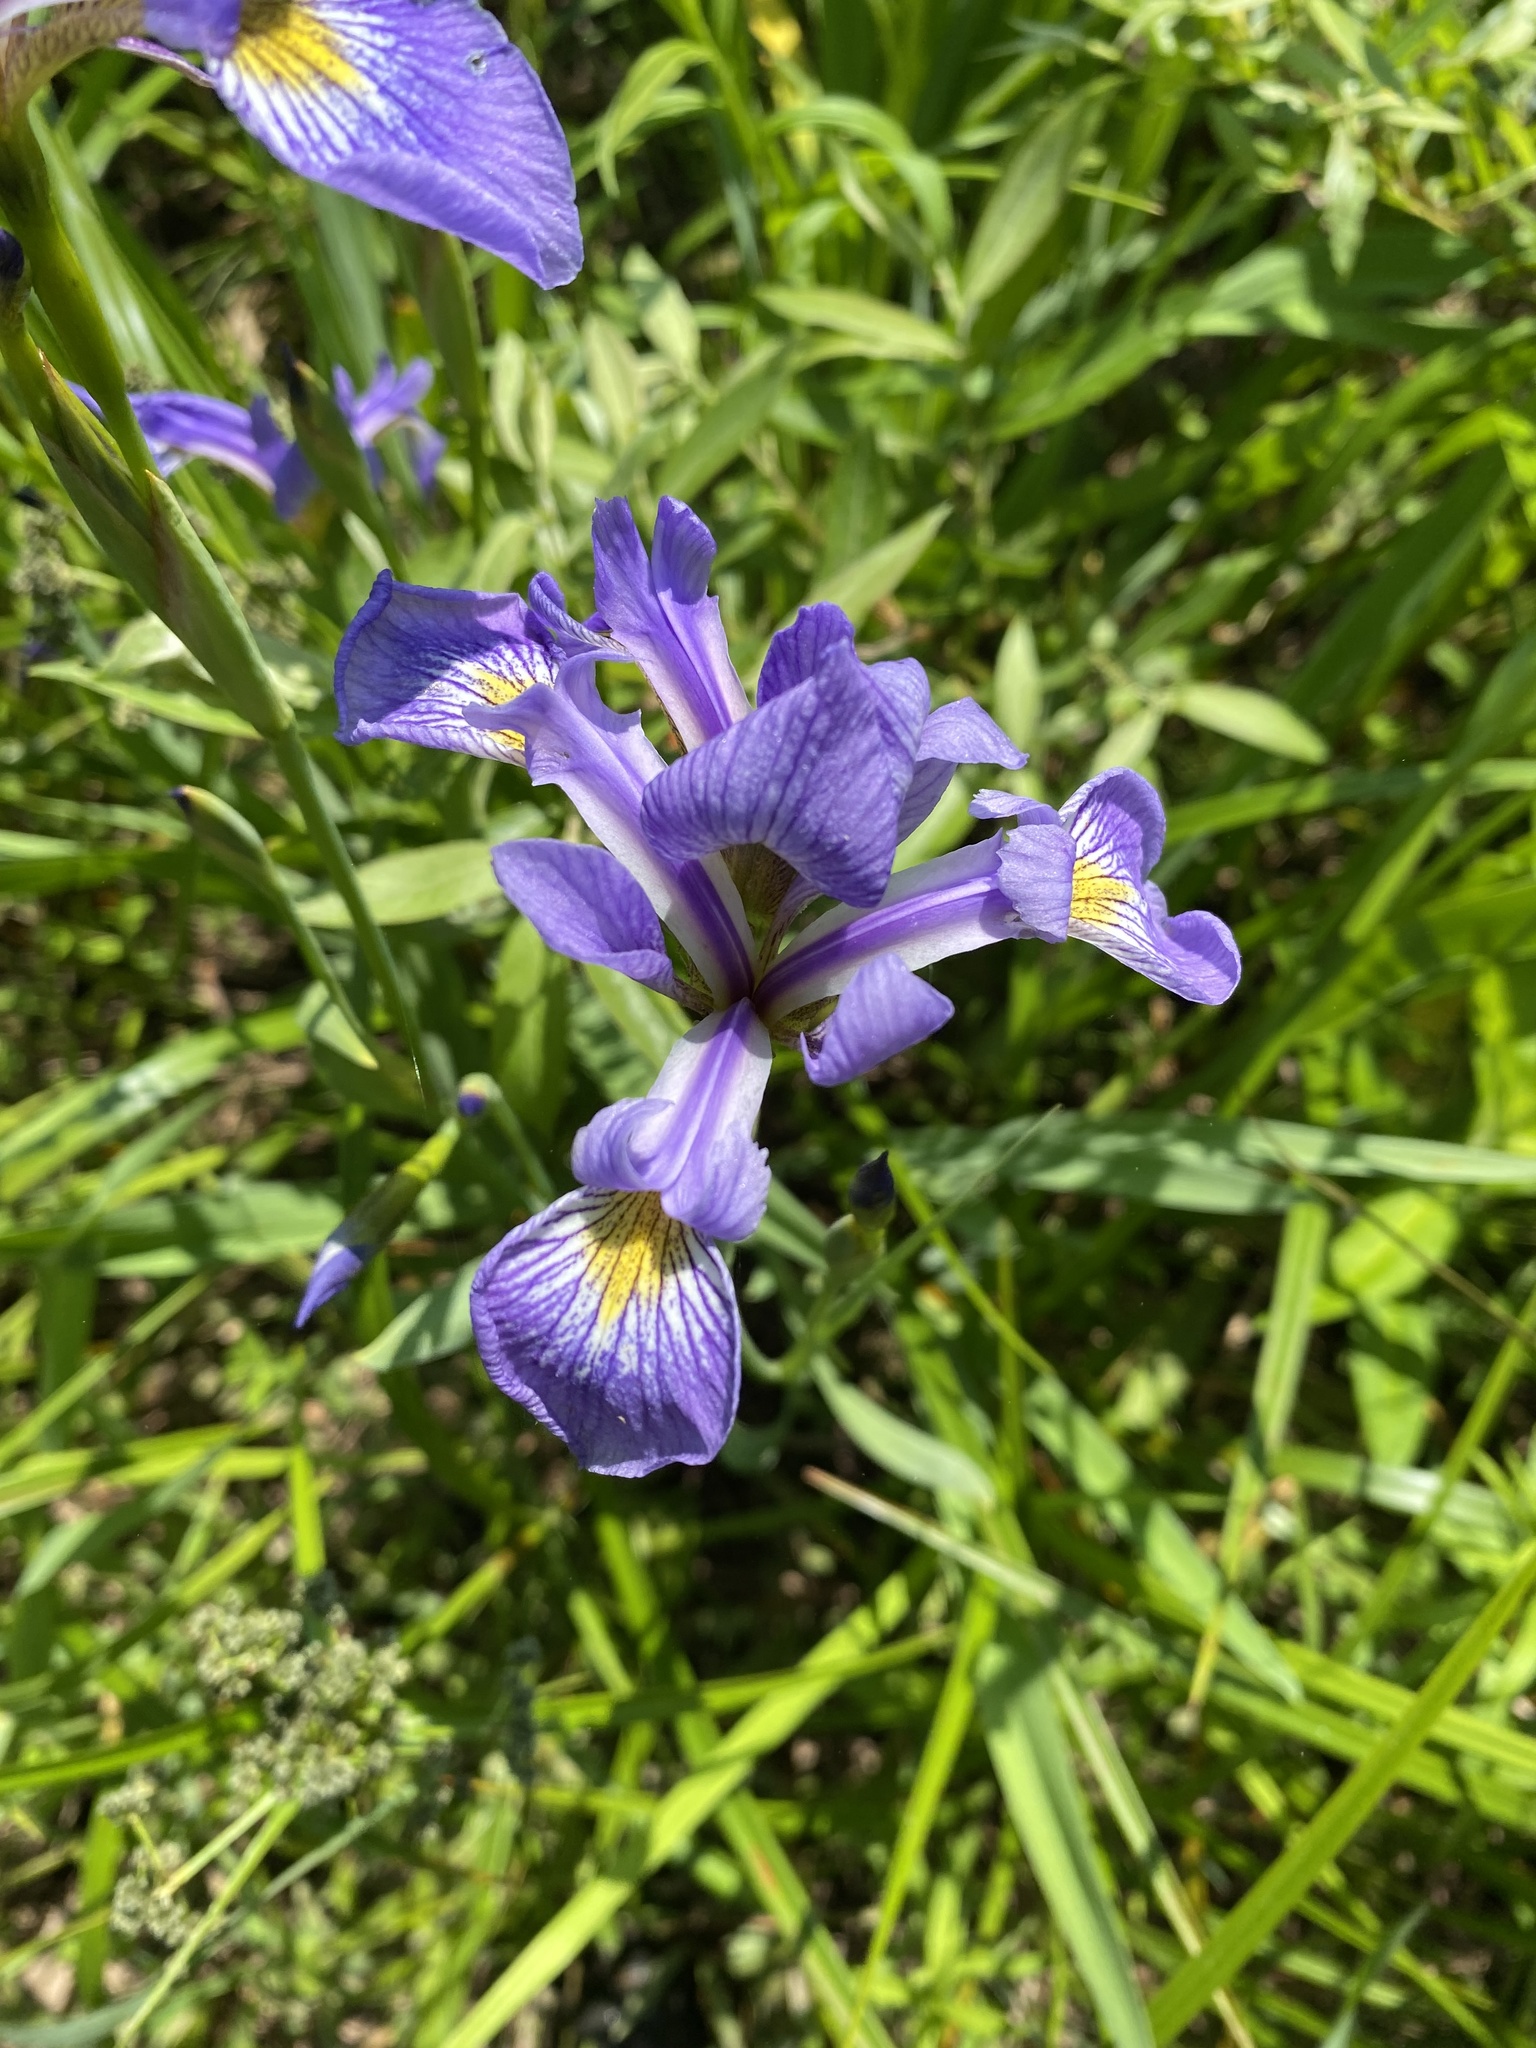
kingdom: Plantae
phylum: Tracheophyta
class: Liliopsida
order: Asparagales
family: Iridaceae
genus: Iris
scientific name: Iris versicolor
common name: Purple iris
